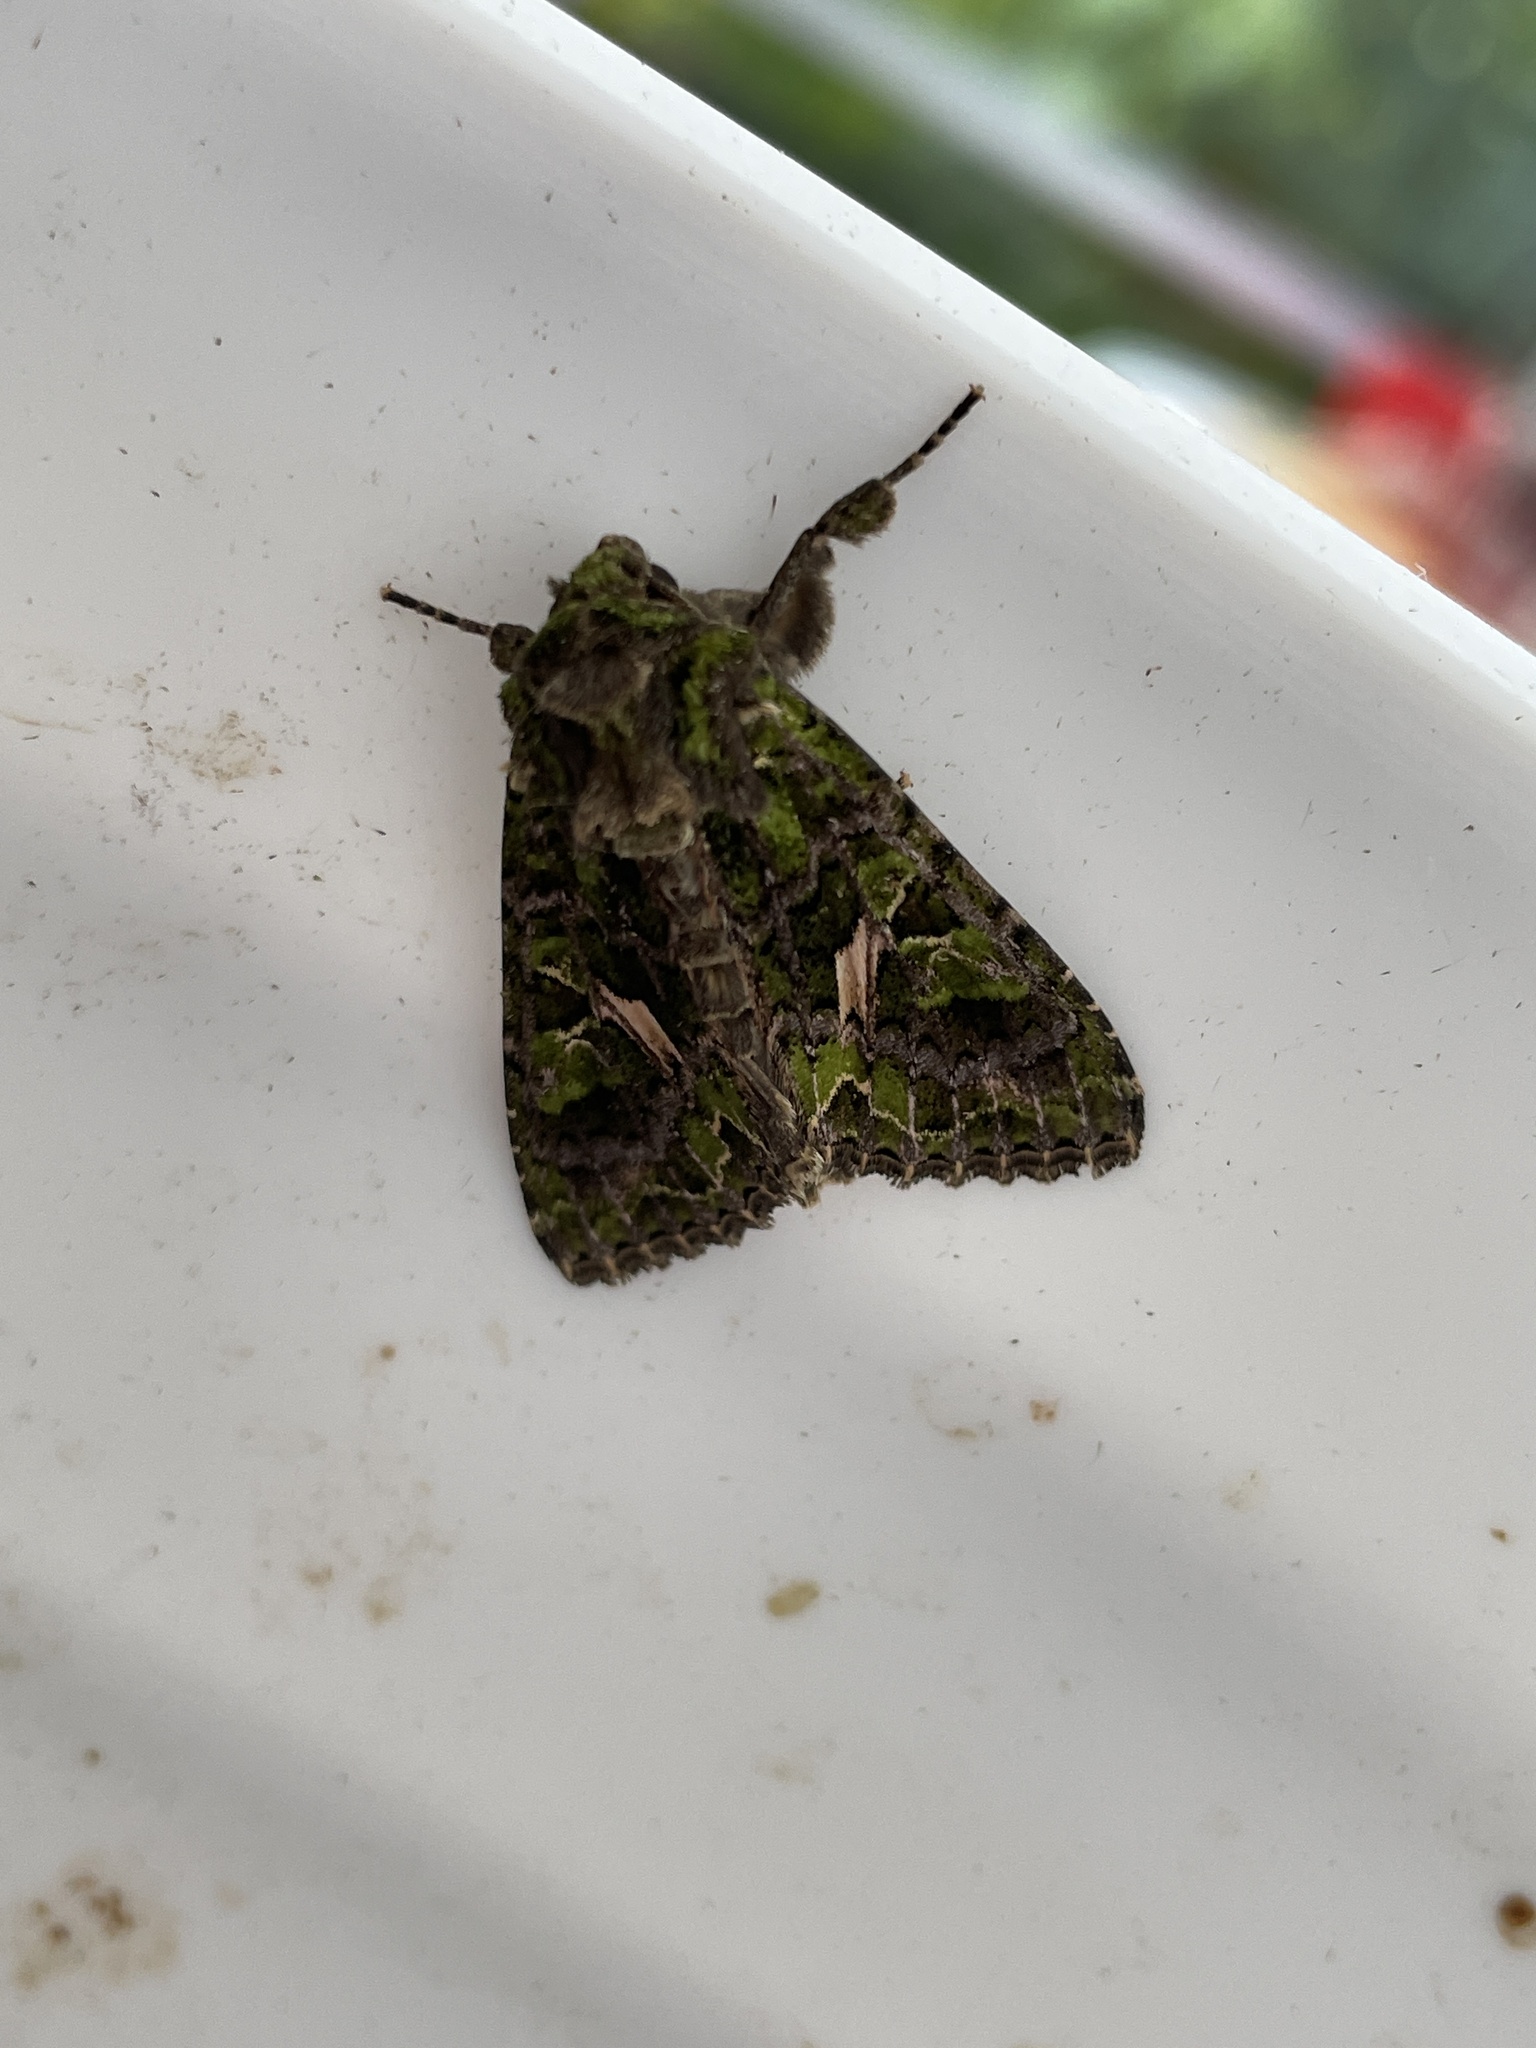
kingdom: Animalia
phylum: Arthropoda
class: Insecta
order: Lepidoptera
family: Noctuidae
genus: Trachea
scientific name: Trachea atriplicis
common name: Orache moth
